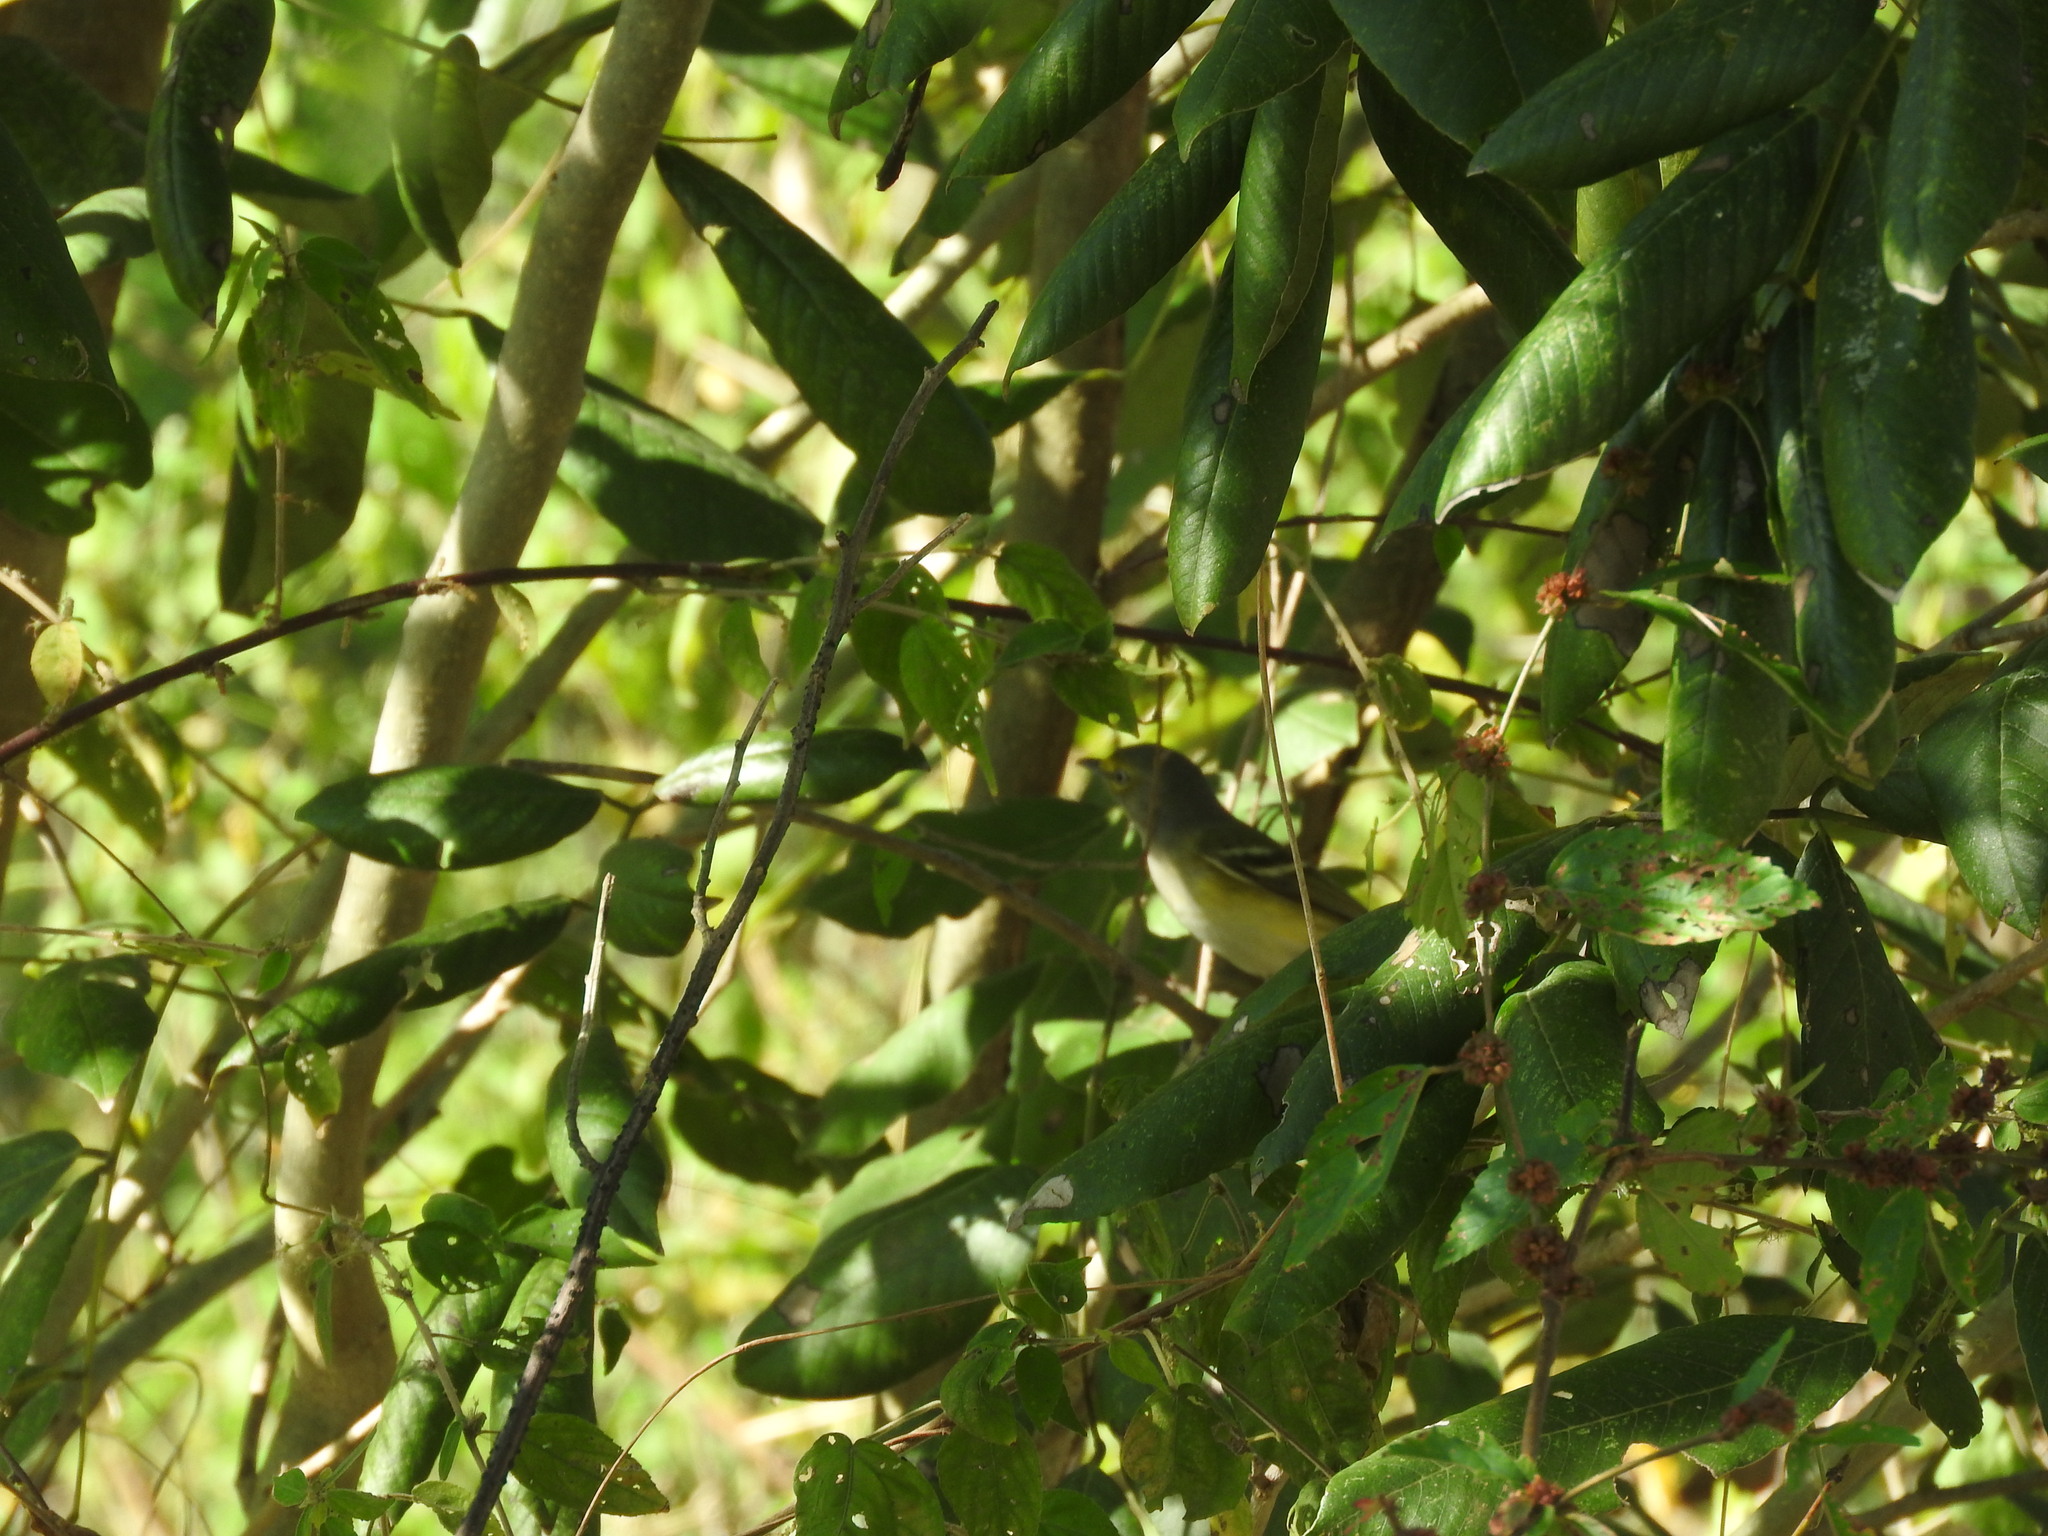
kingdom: Animalia
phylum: Chordata
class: Aves
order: Passeriformes
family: Vireonidae
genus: Vireo
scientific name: Vireo griseus
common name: White-eyed vireo
